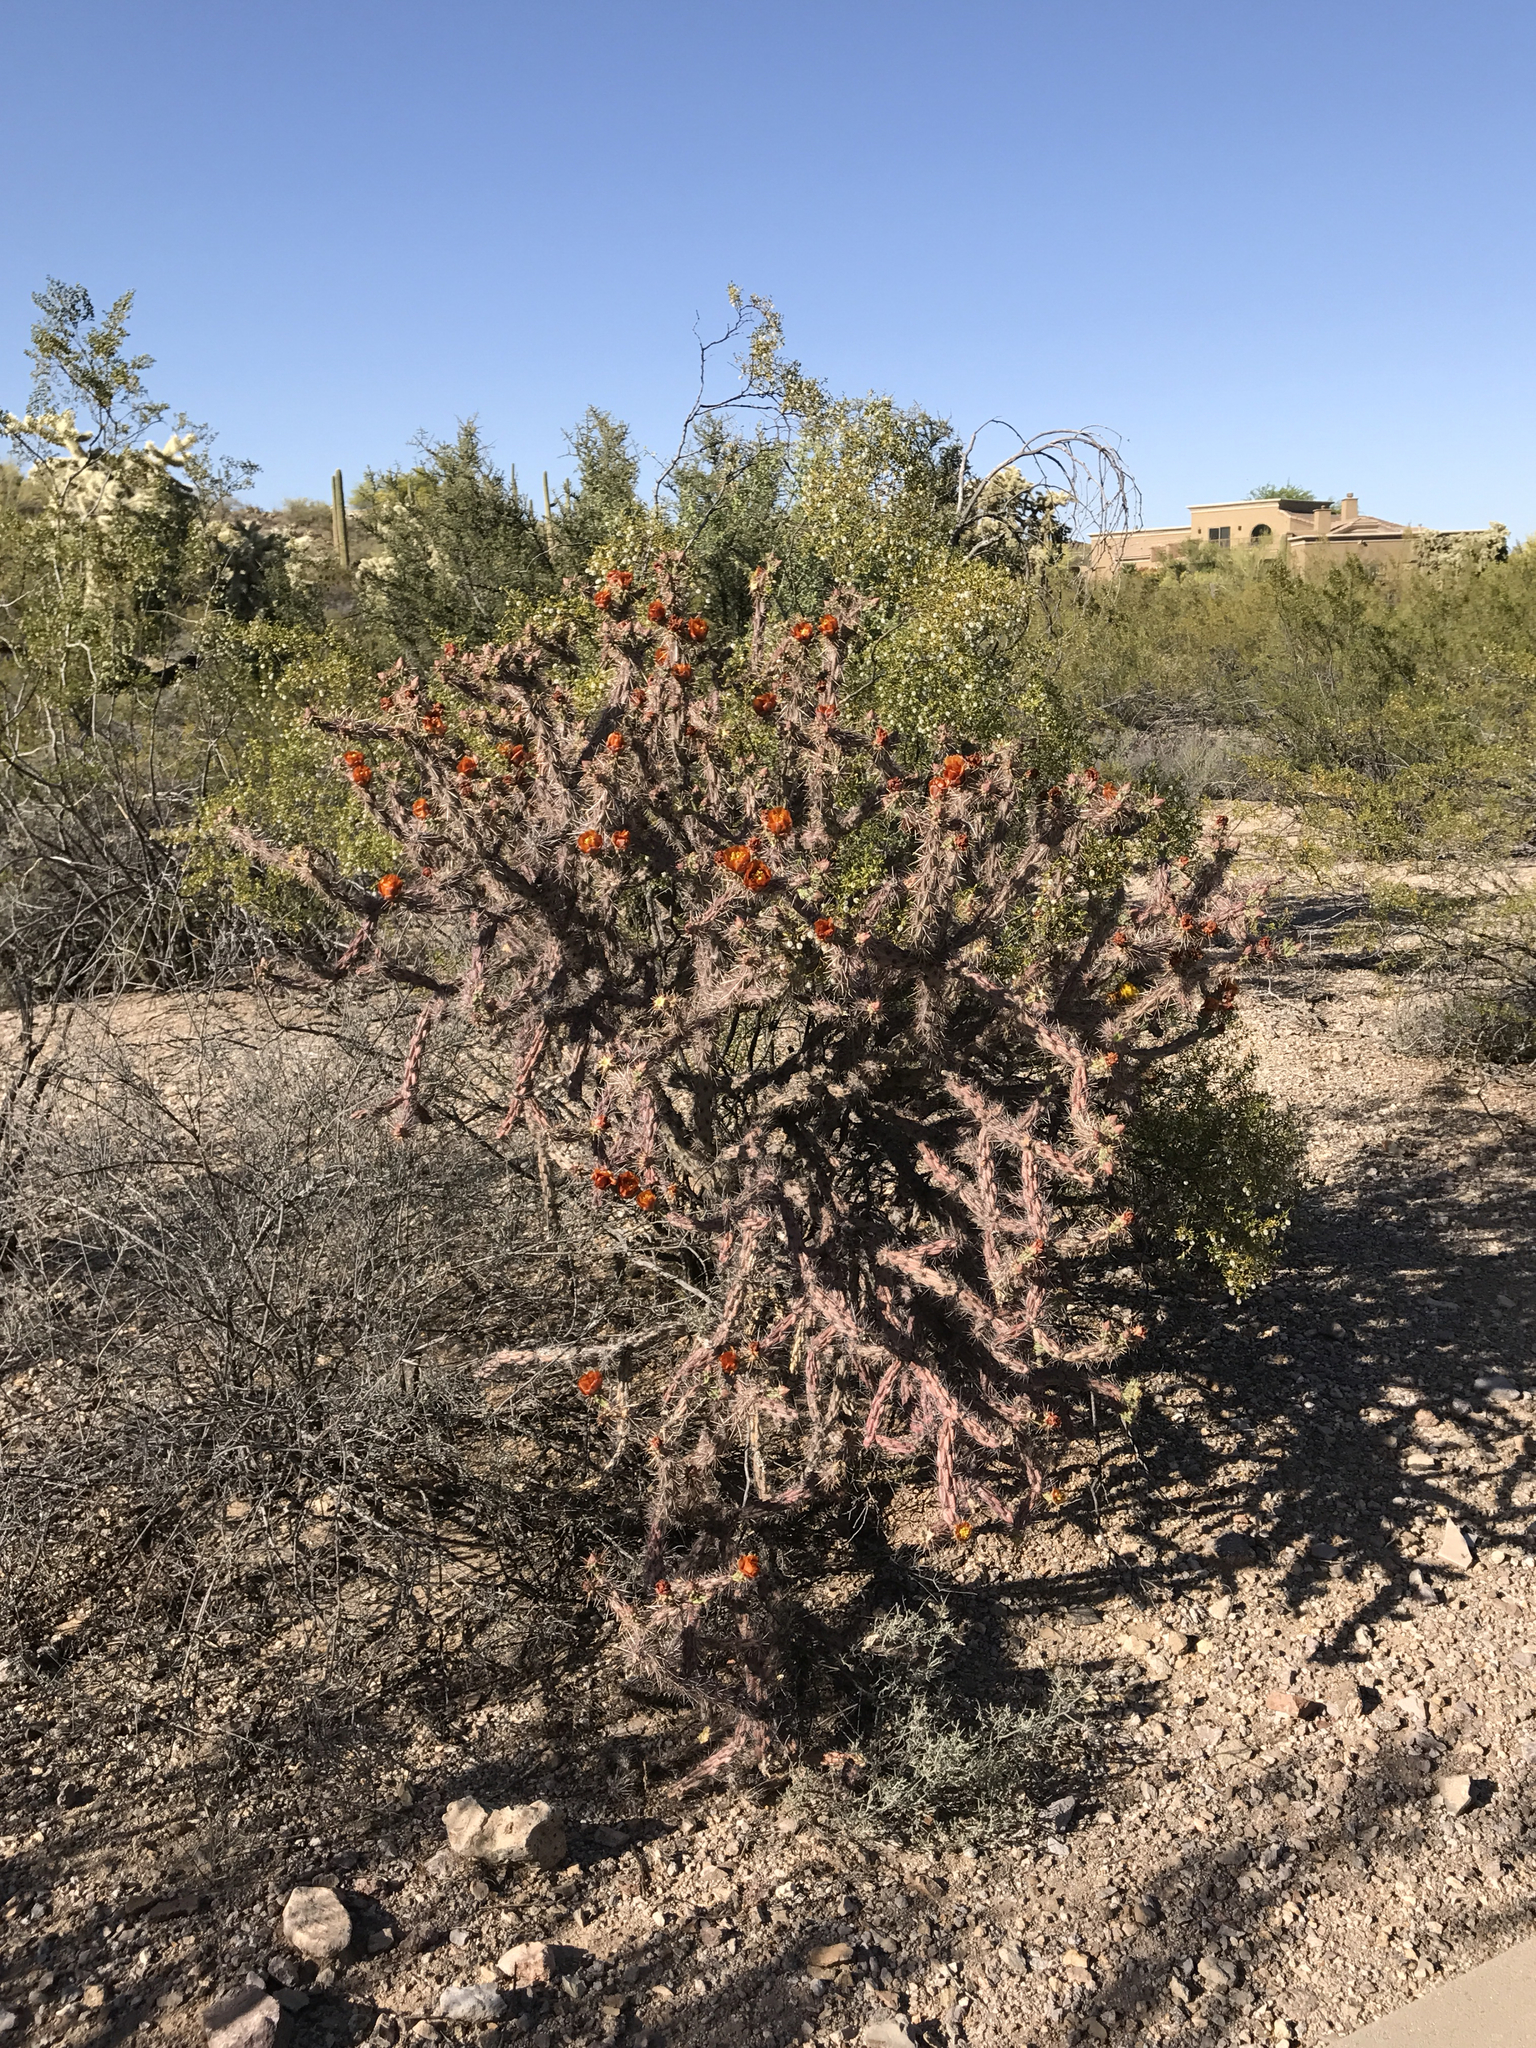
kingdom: Plantae
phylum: Tracheophyta
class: Magnoliopsida
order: Caryophyllales
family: Cactaceae
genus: Cylindropuntia
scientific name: Cylindropuntia thurberi
